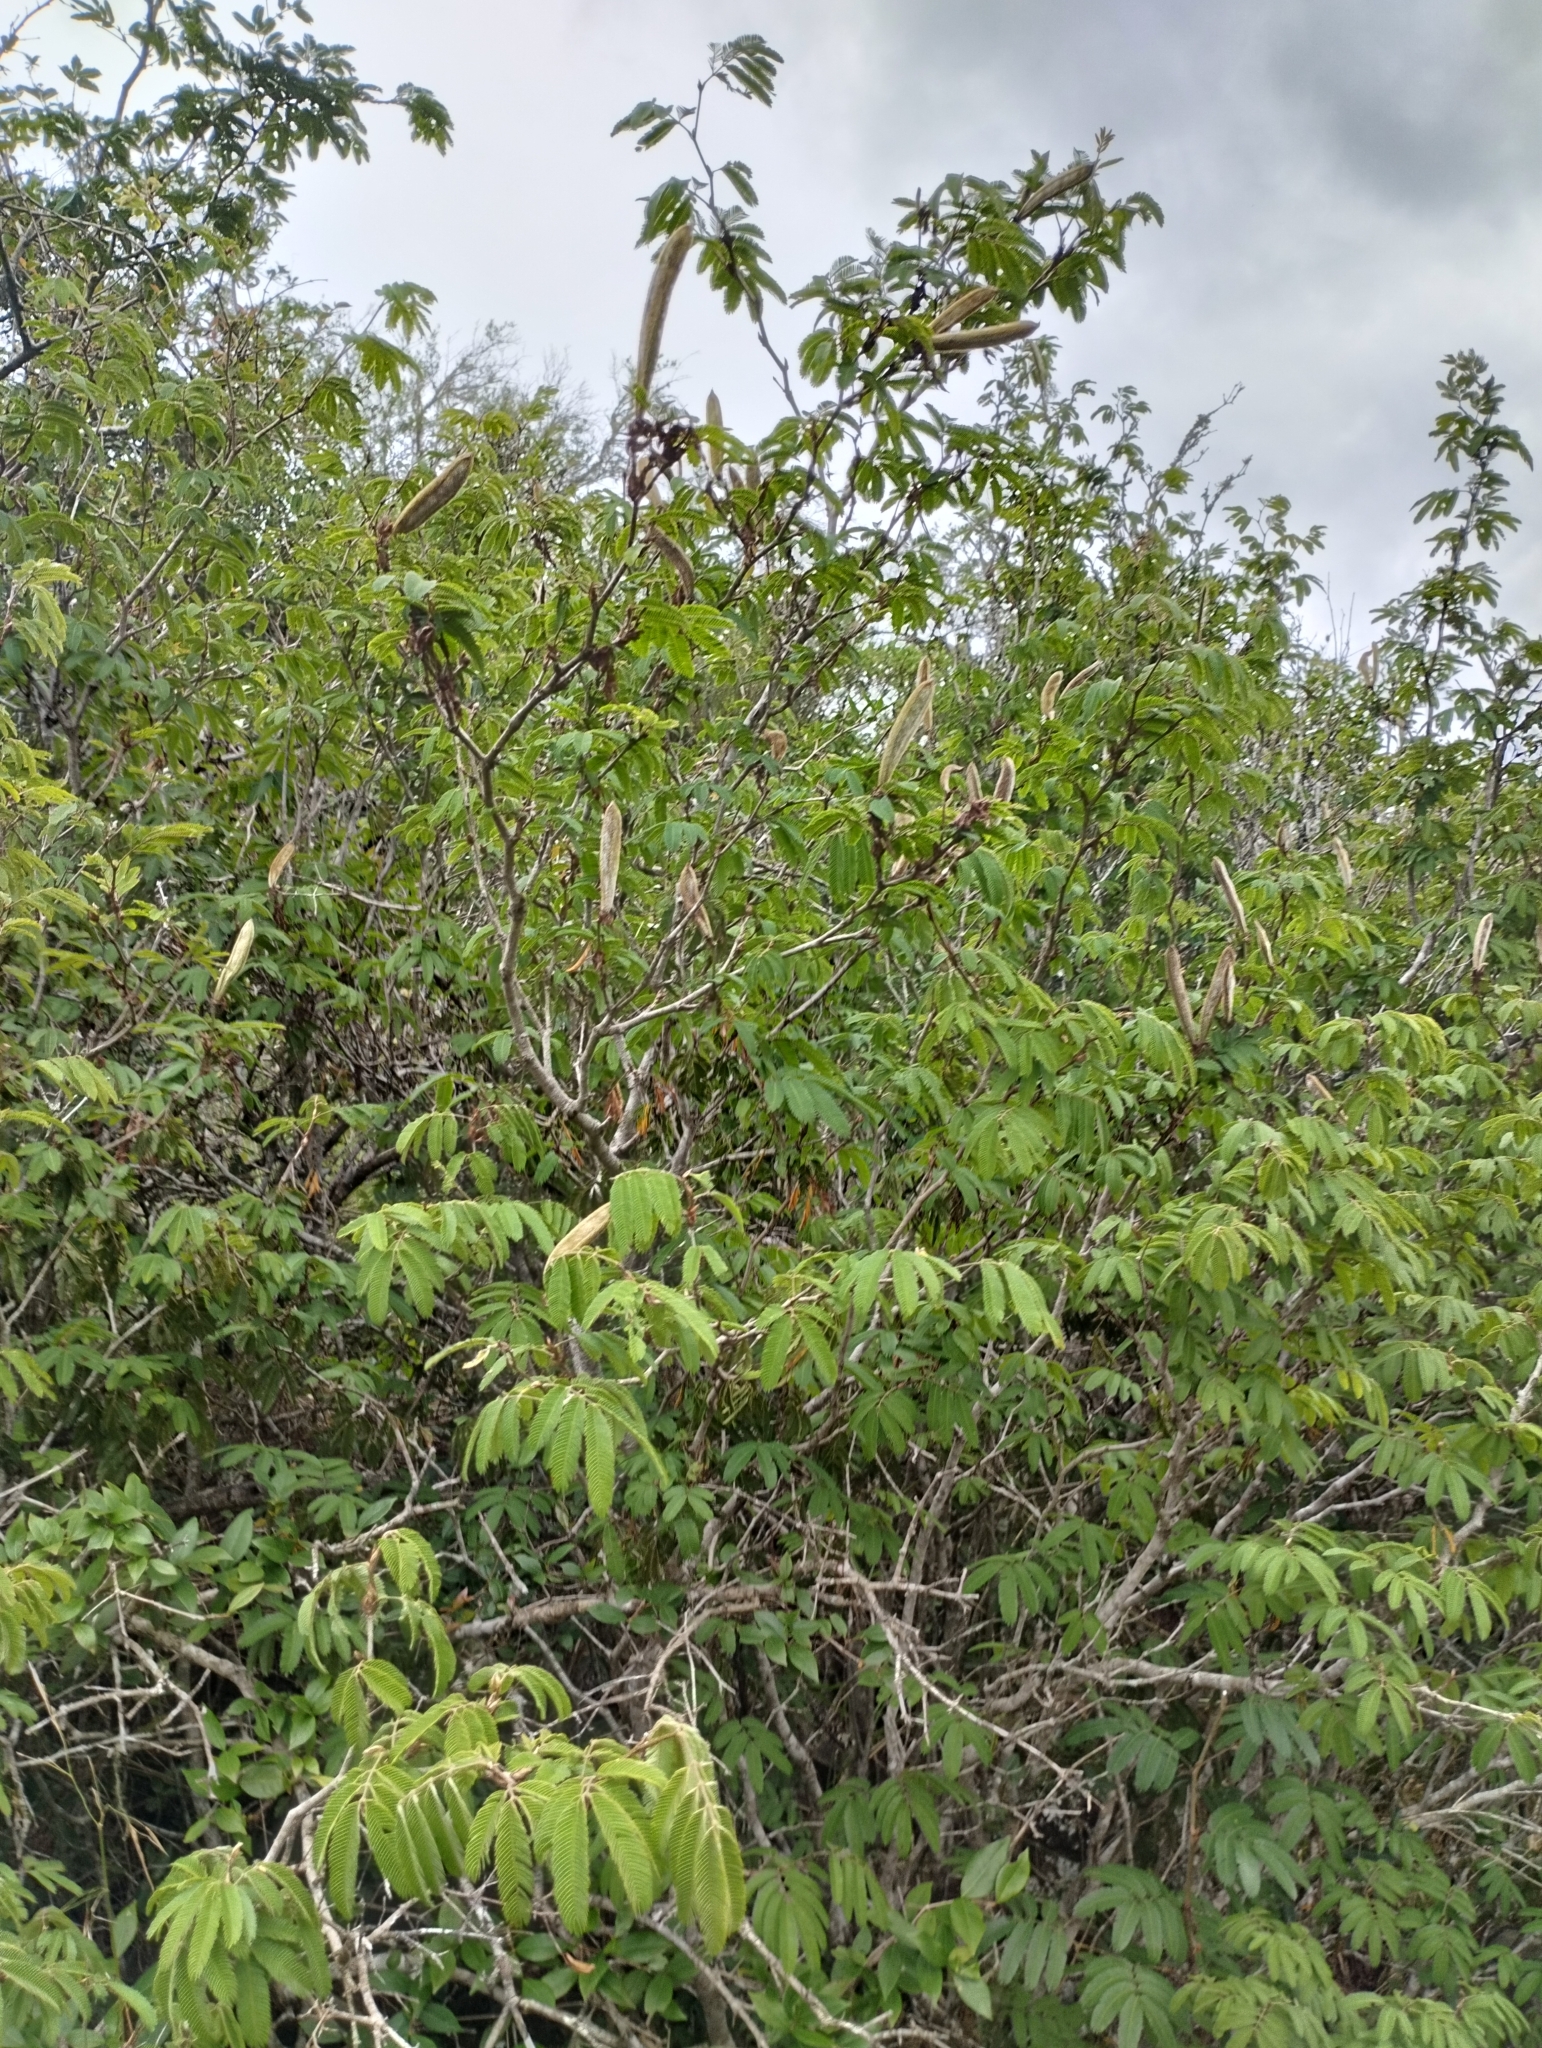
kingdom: Plantae
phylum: Tracheophyta
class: Magnoliopsida
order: Fabales
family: Fabaceae
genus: Calliandra
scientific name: Calliandra tweediei
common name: Mexican flamebush
